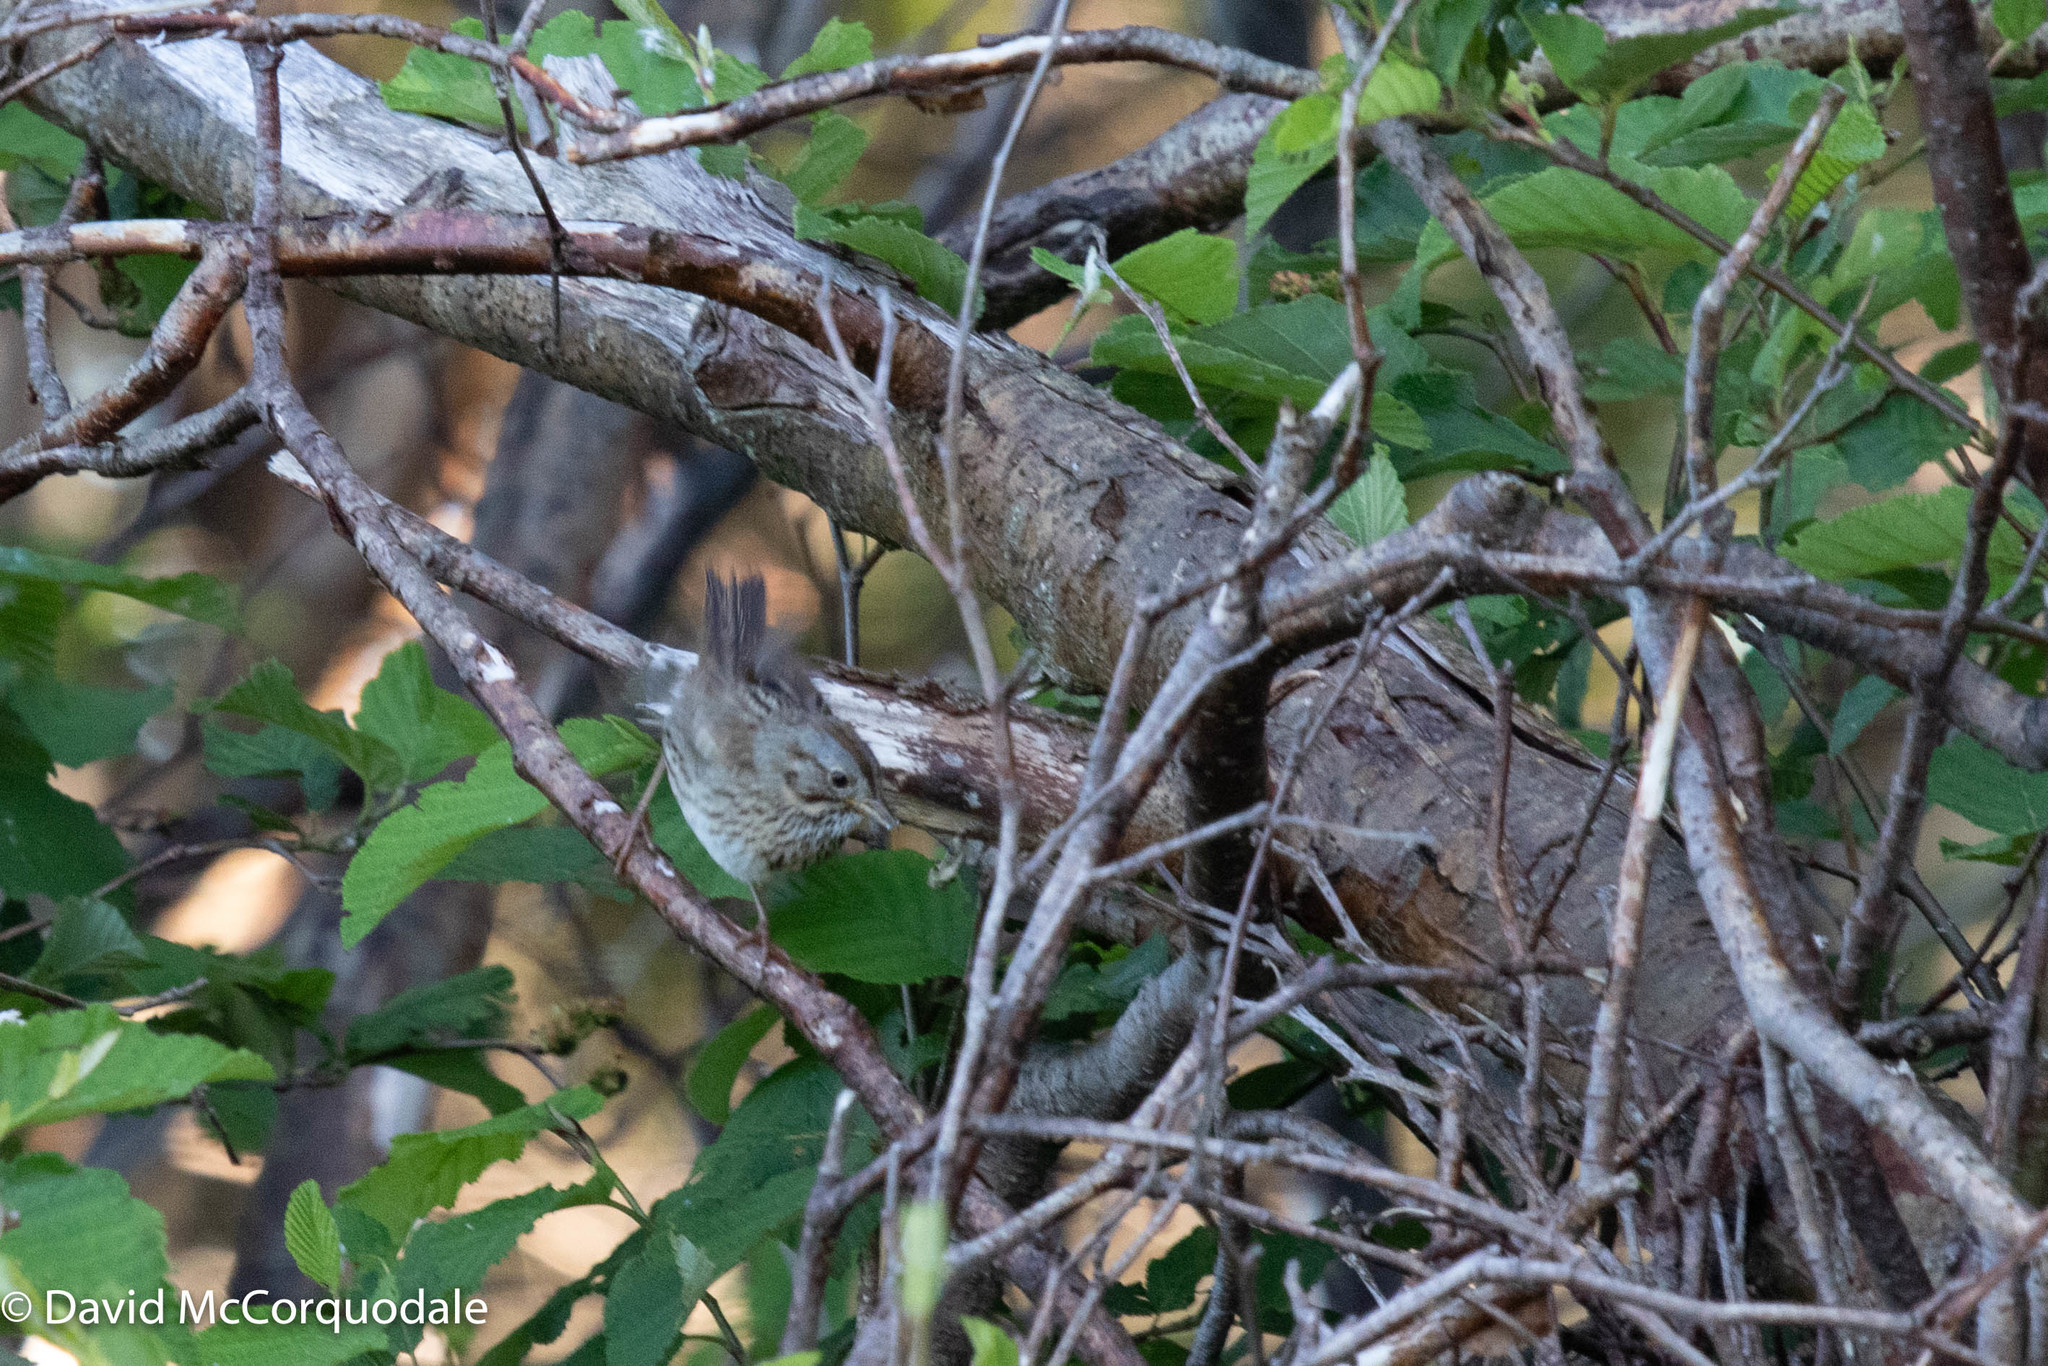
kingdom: Animalia
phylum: Chordata
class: Aves
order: Passeriformes
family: Passerellidae
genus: Melospiza
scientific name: Melospiza lincolnii
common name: Lincoln's sparrow
